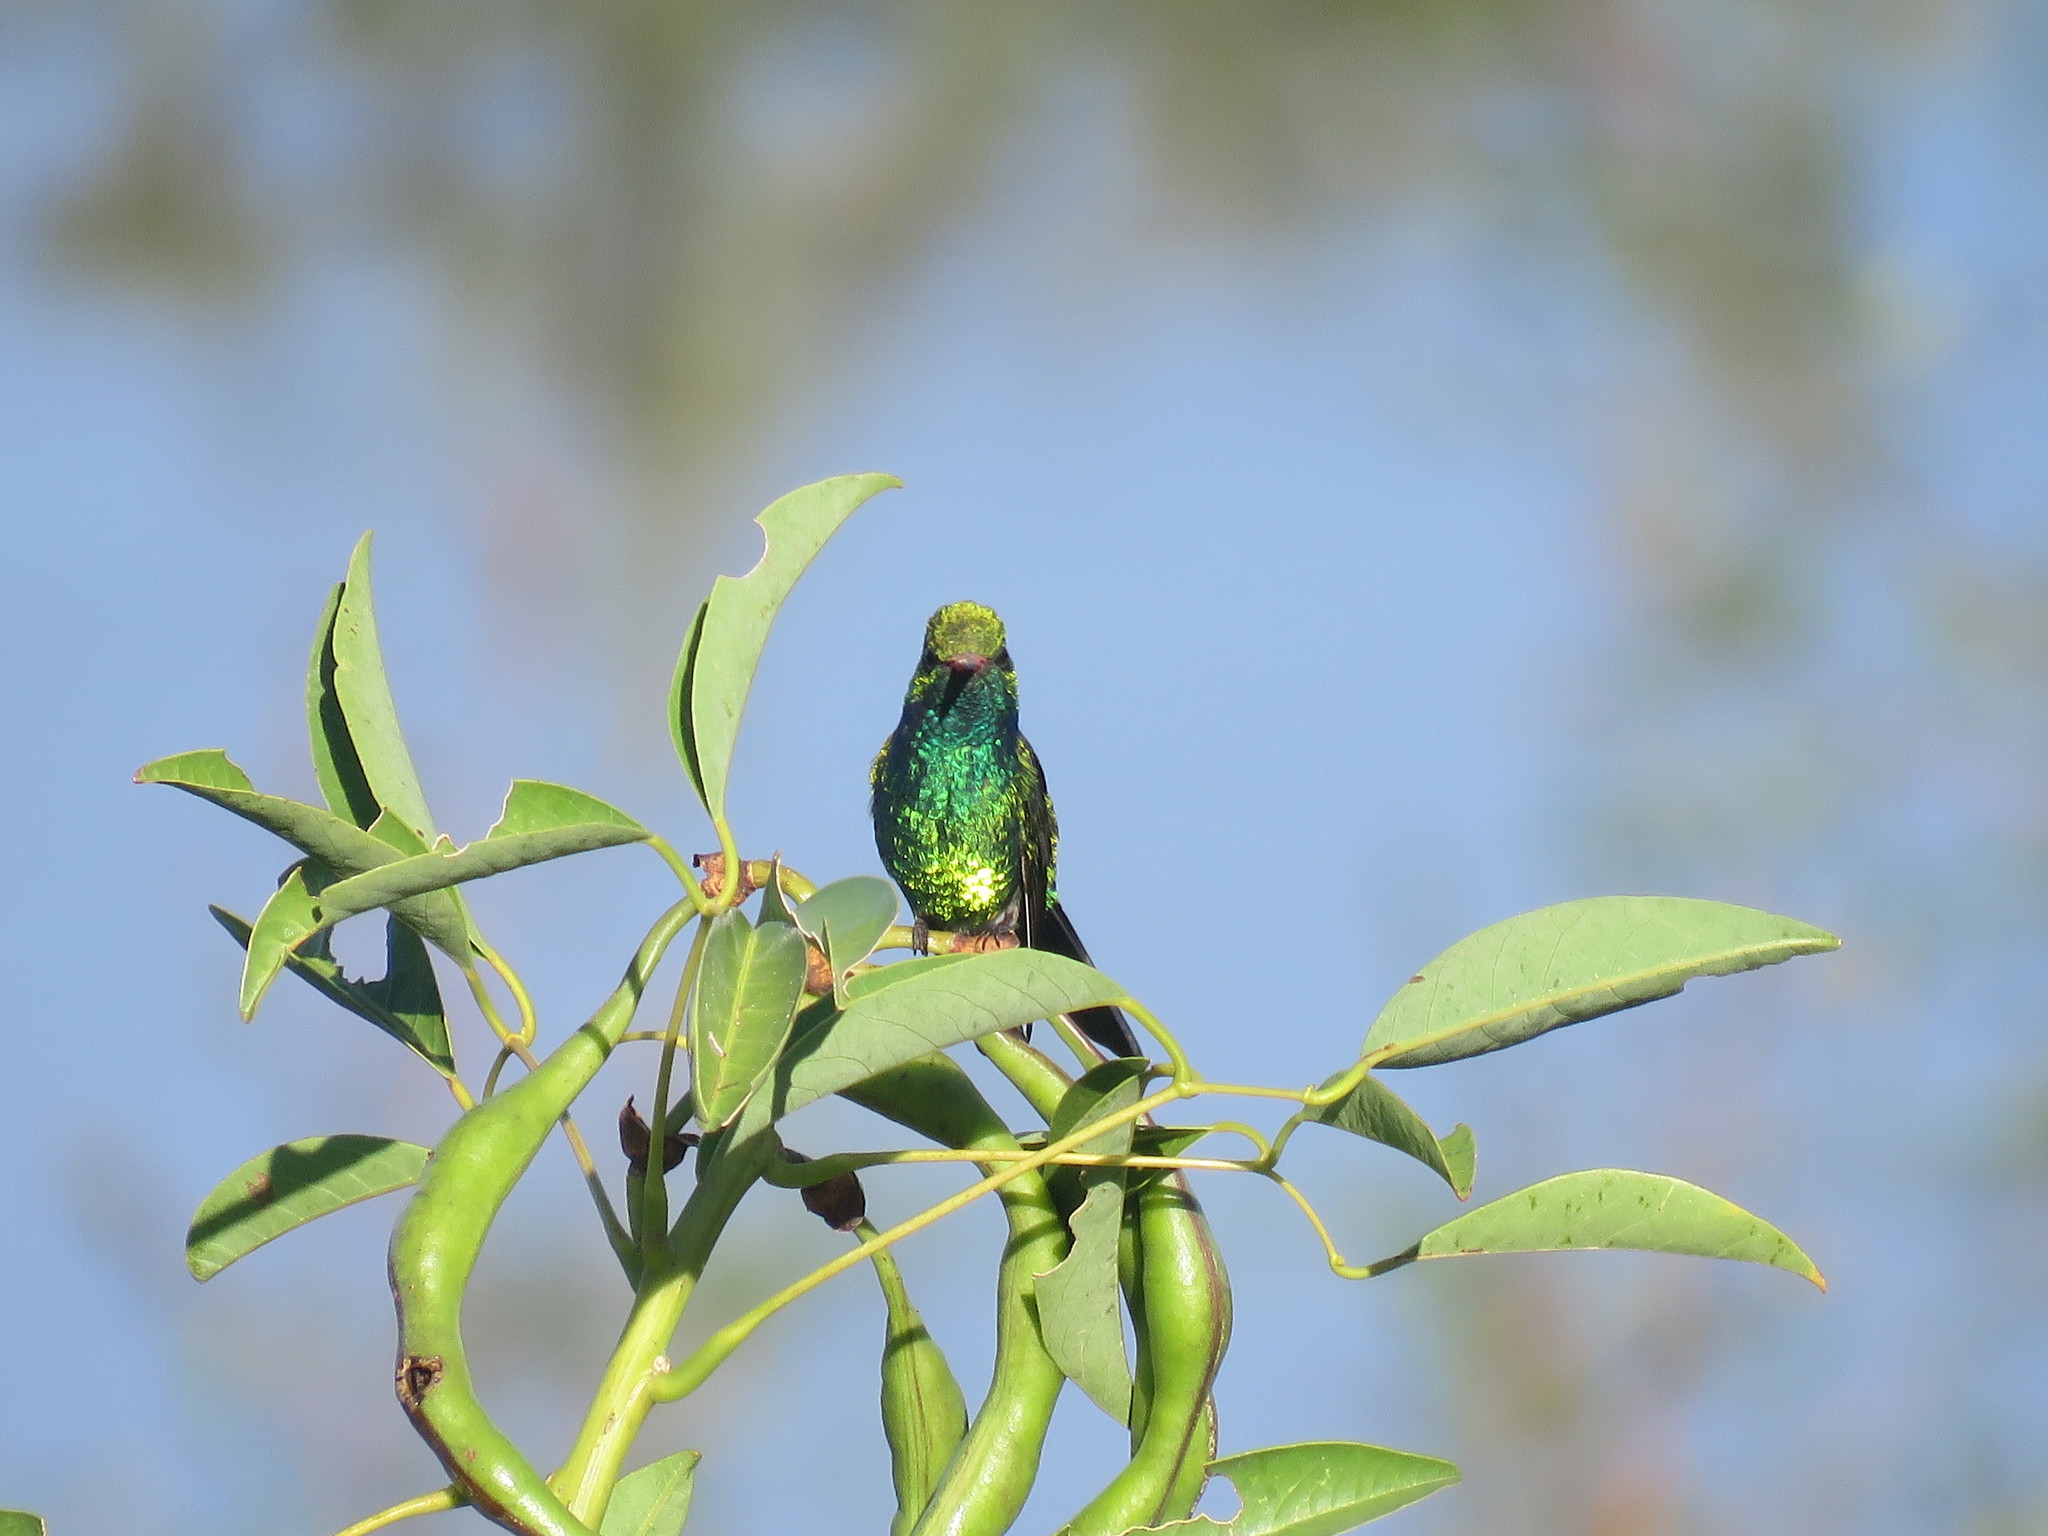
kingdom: Animalia
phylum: Chordata
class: Aves
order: Apodiformes
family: Trochilidae
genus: Chlorostilbon
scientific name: Chlorostilbon lucidus
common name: Glittering-bellied emerald
